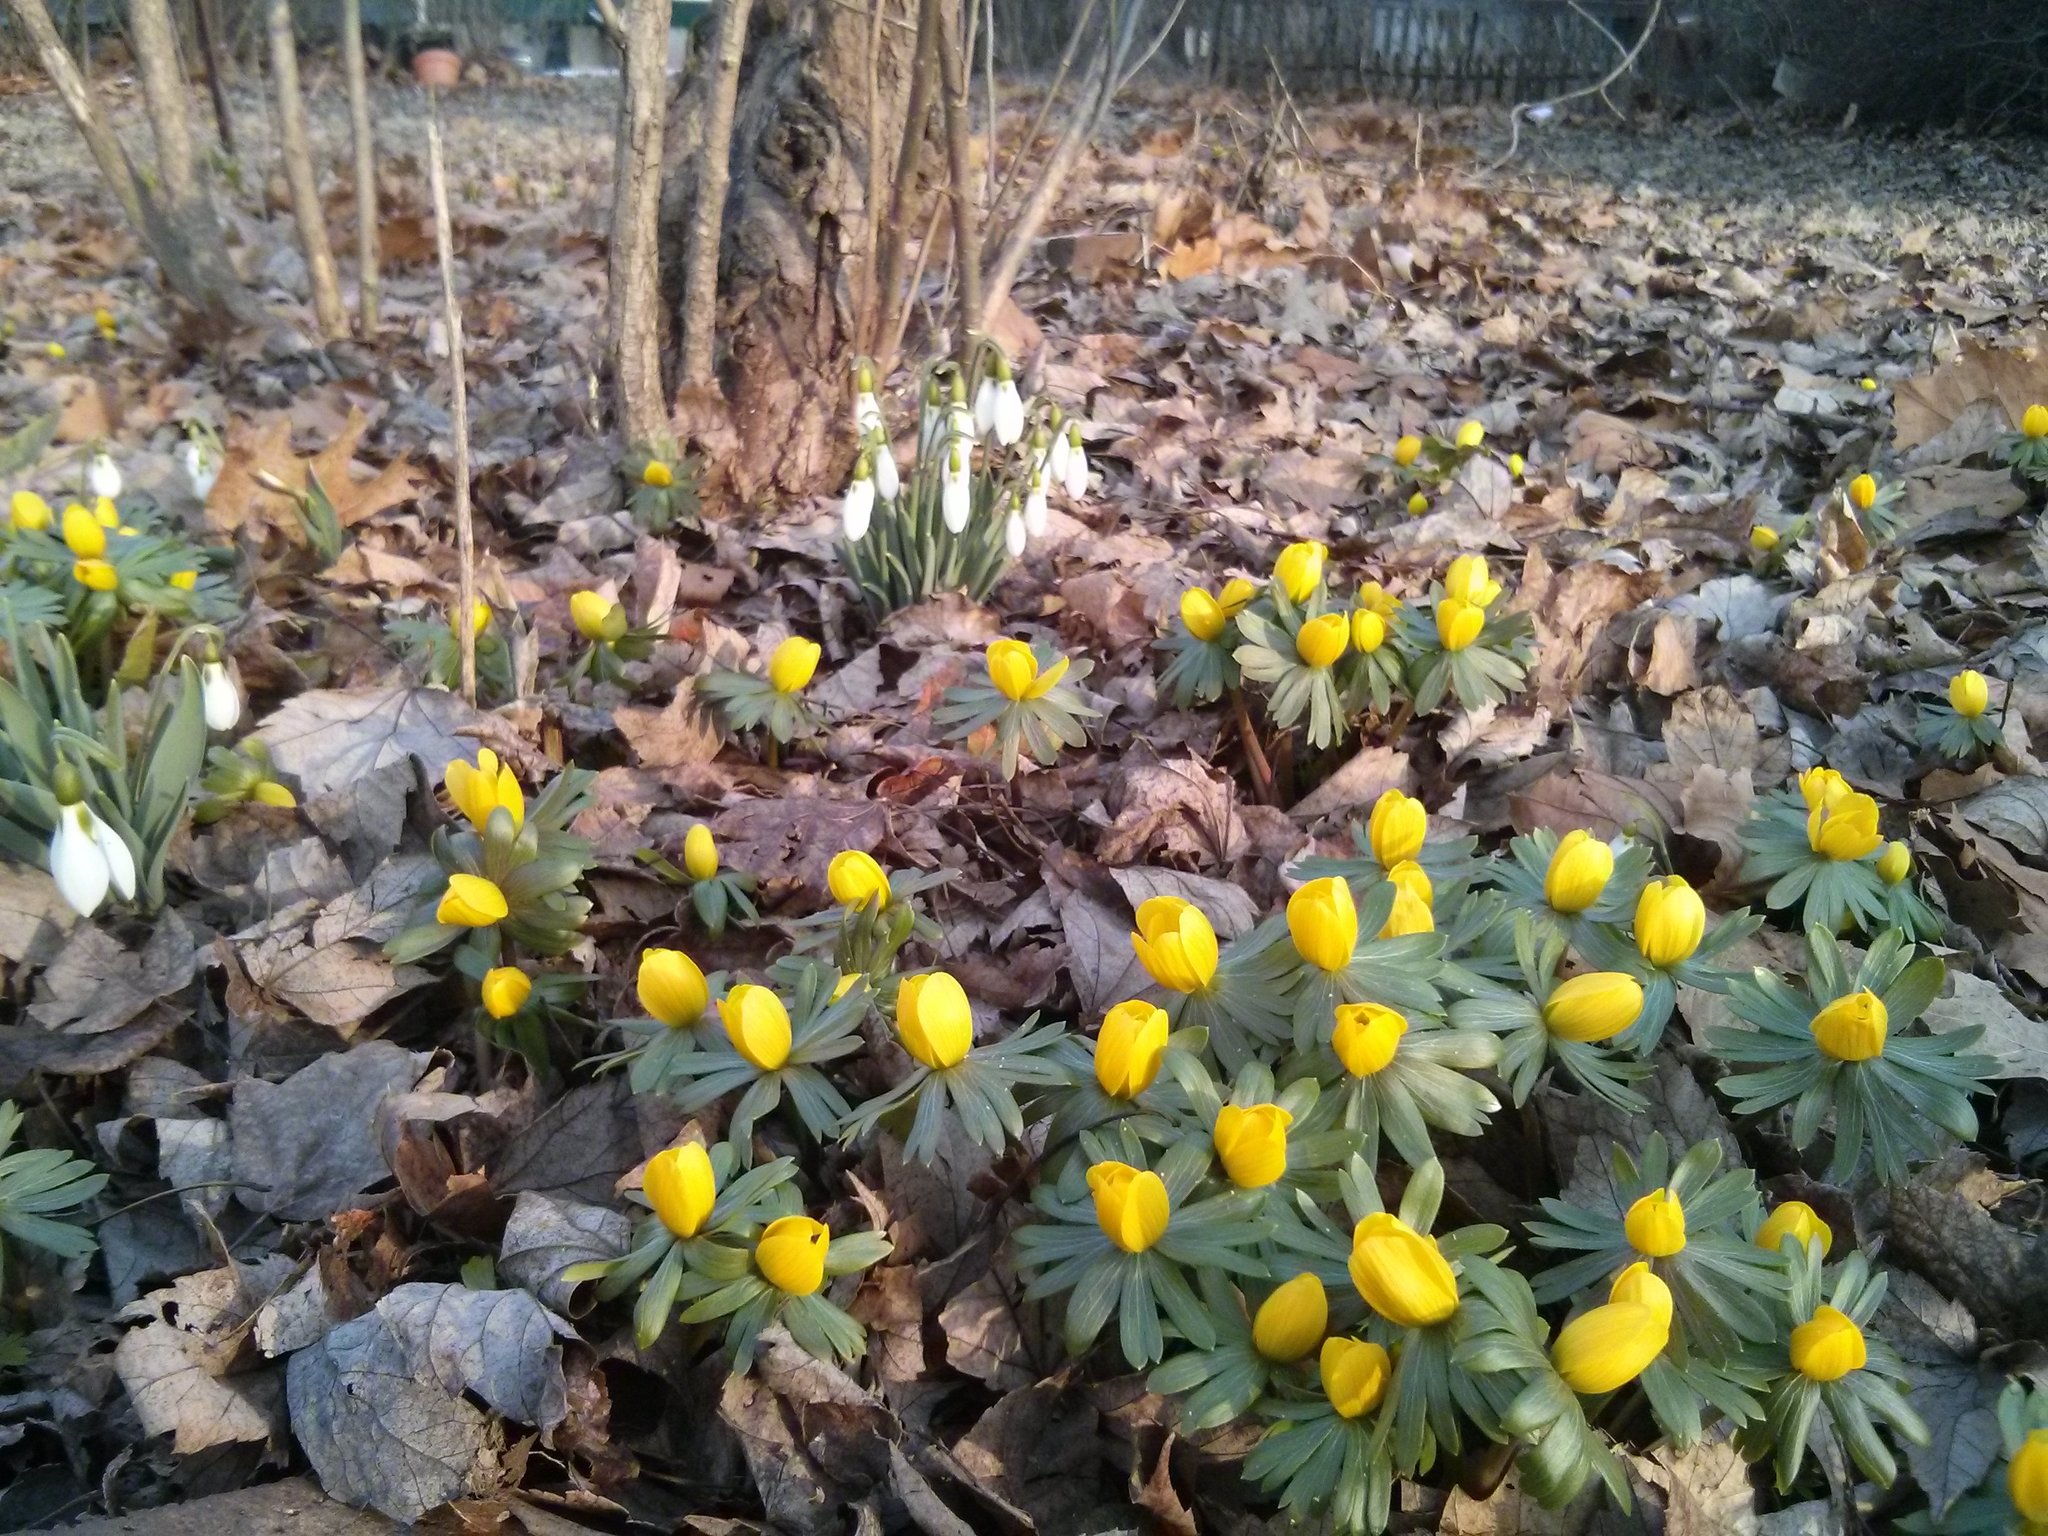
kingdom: Plantae
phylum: Tracheophyta
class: Magnoliopsida
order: Ranunculales
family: Ranunculaceae
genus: Eranthis
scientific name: Eranthis hyemalis
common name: Winter aconite
